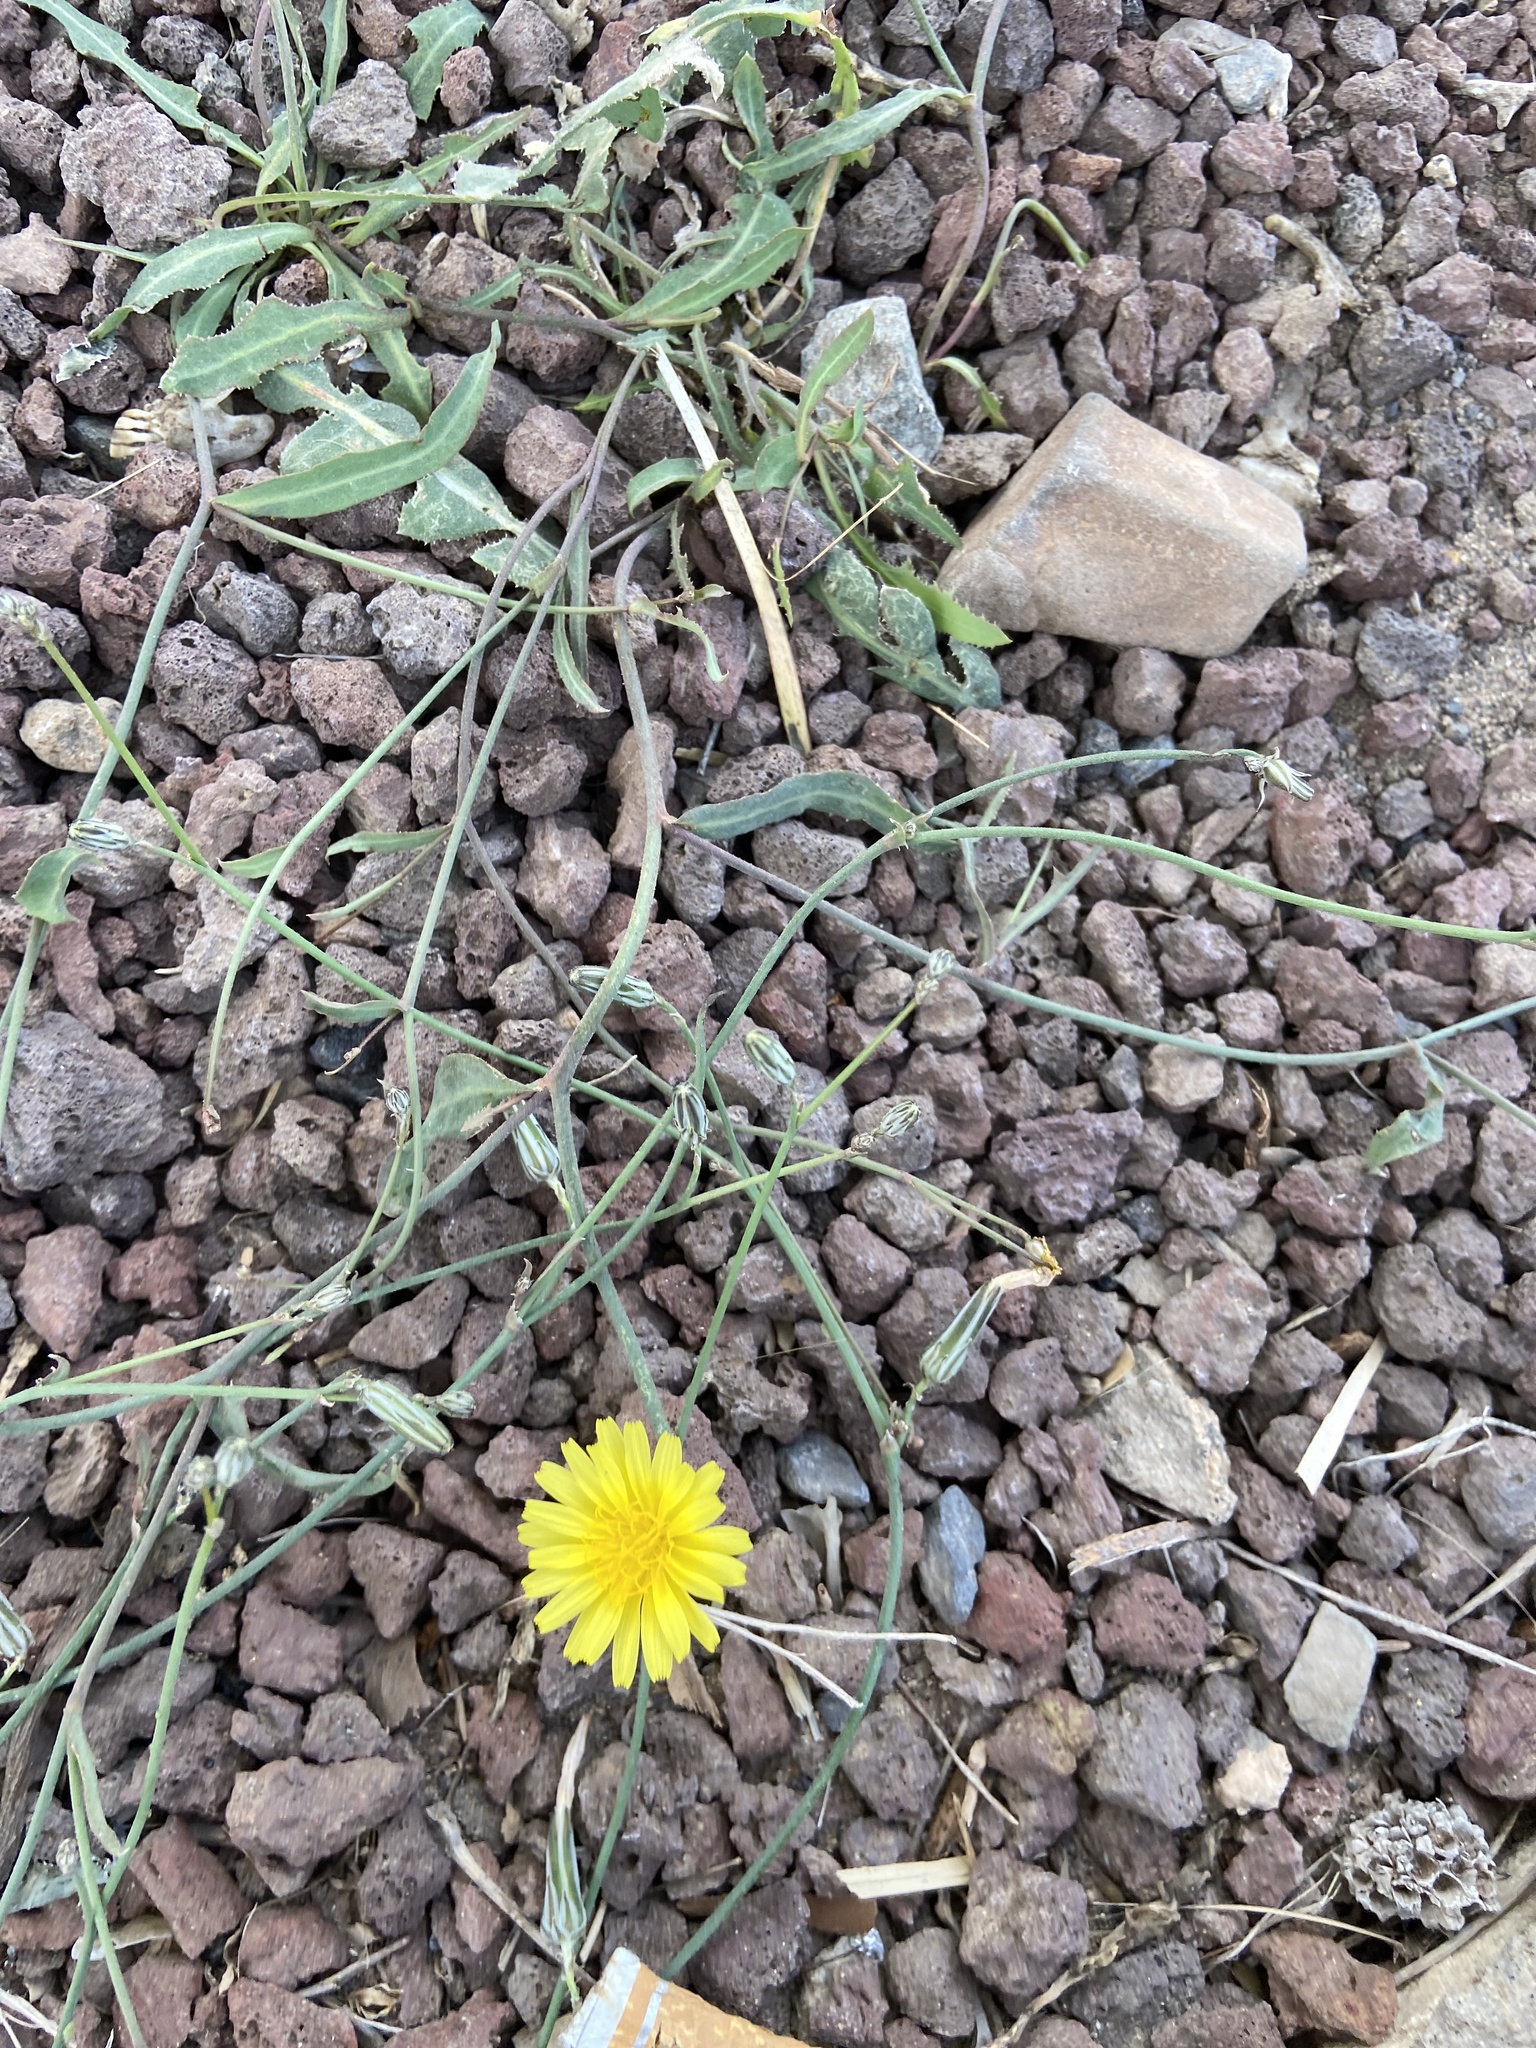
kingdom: Plantae
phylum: Tracheophyta
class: Magnoliopsida
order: Asterales
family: Asteraceae
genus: Launaea
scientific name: Launaea nudicaulis
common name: Naked launaea
